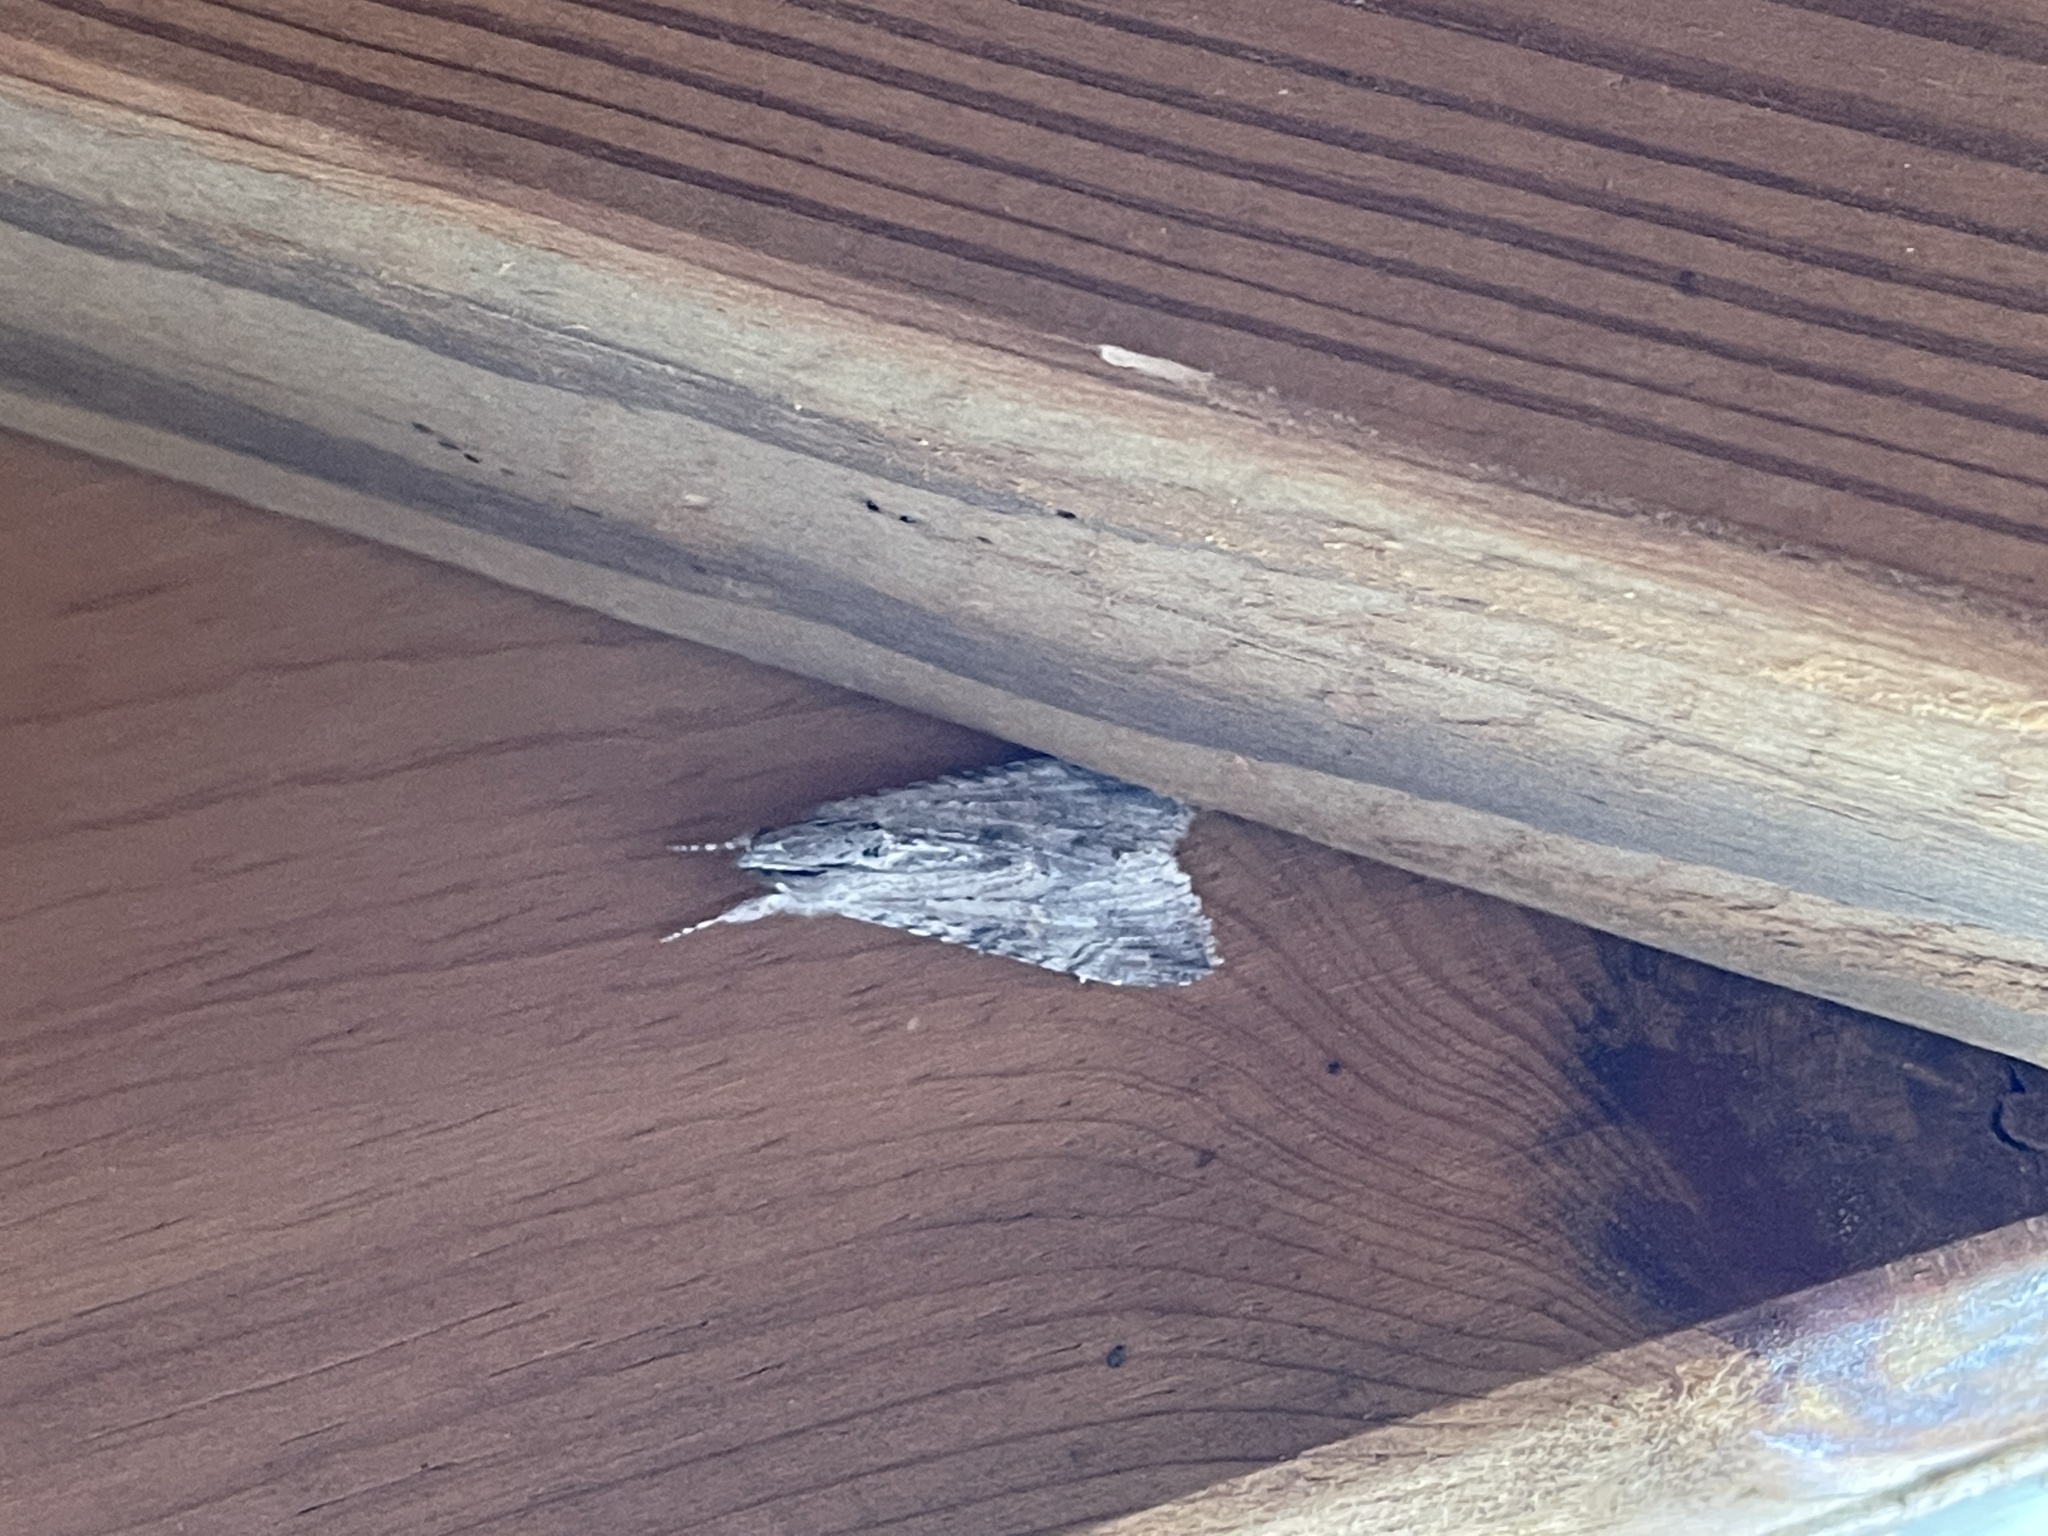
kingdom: Animalia
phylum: Arthropoda
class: Insecta
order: Lepidoptera
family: Erebidae
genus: Melipotis
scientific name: Melipotis acontioides
